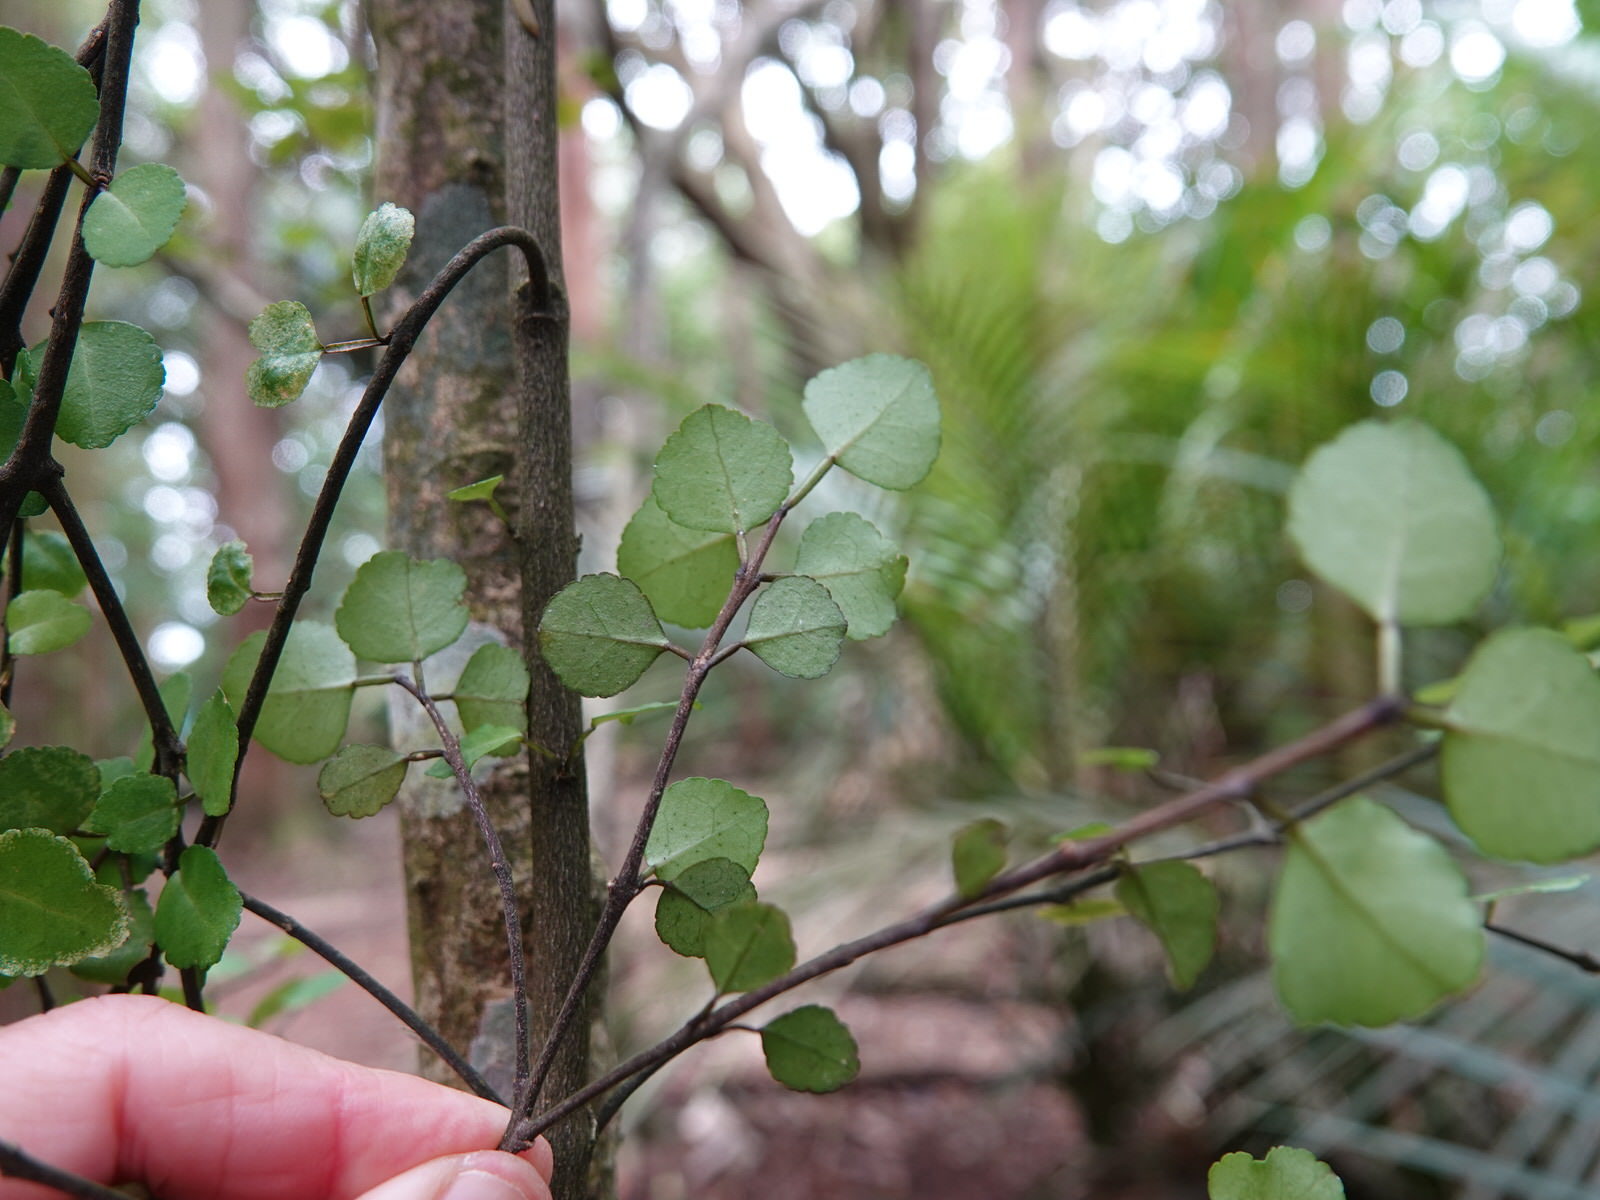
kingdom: Plantae
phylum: Tracheophyta
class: Magnoliopsida
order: Sapindales
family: Rutaceae
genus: Melicope
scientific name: Melicope simplex
